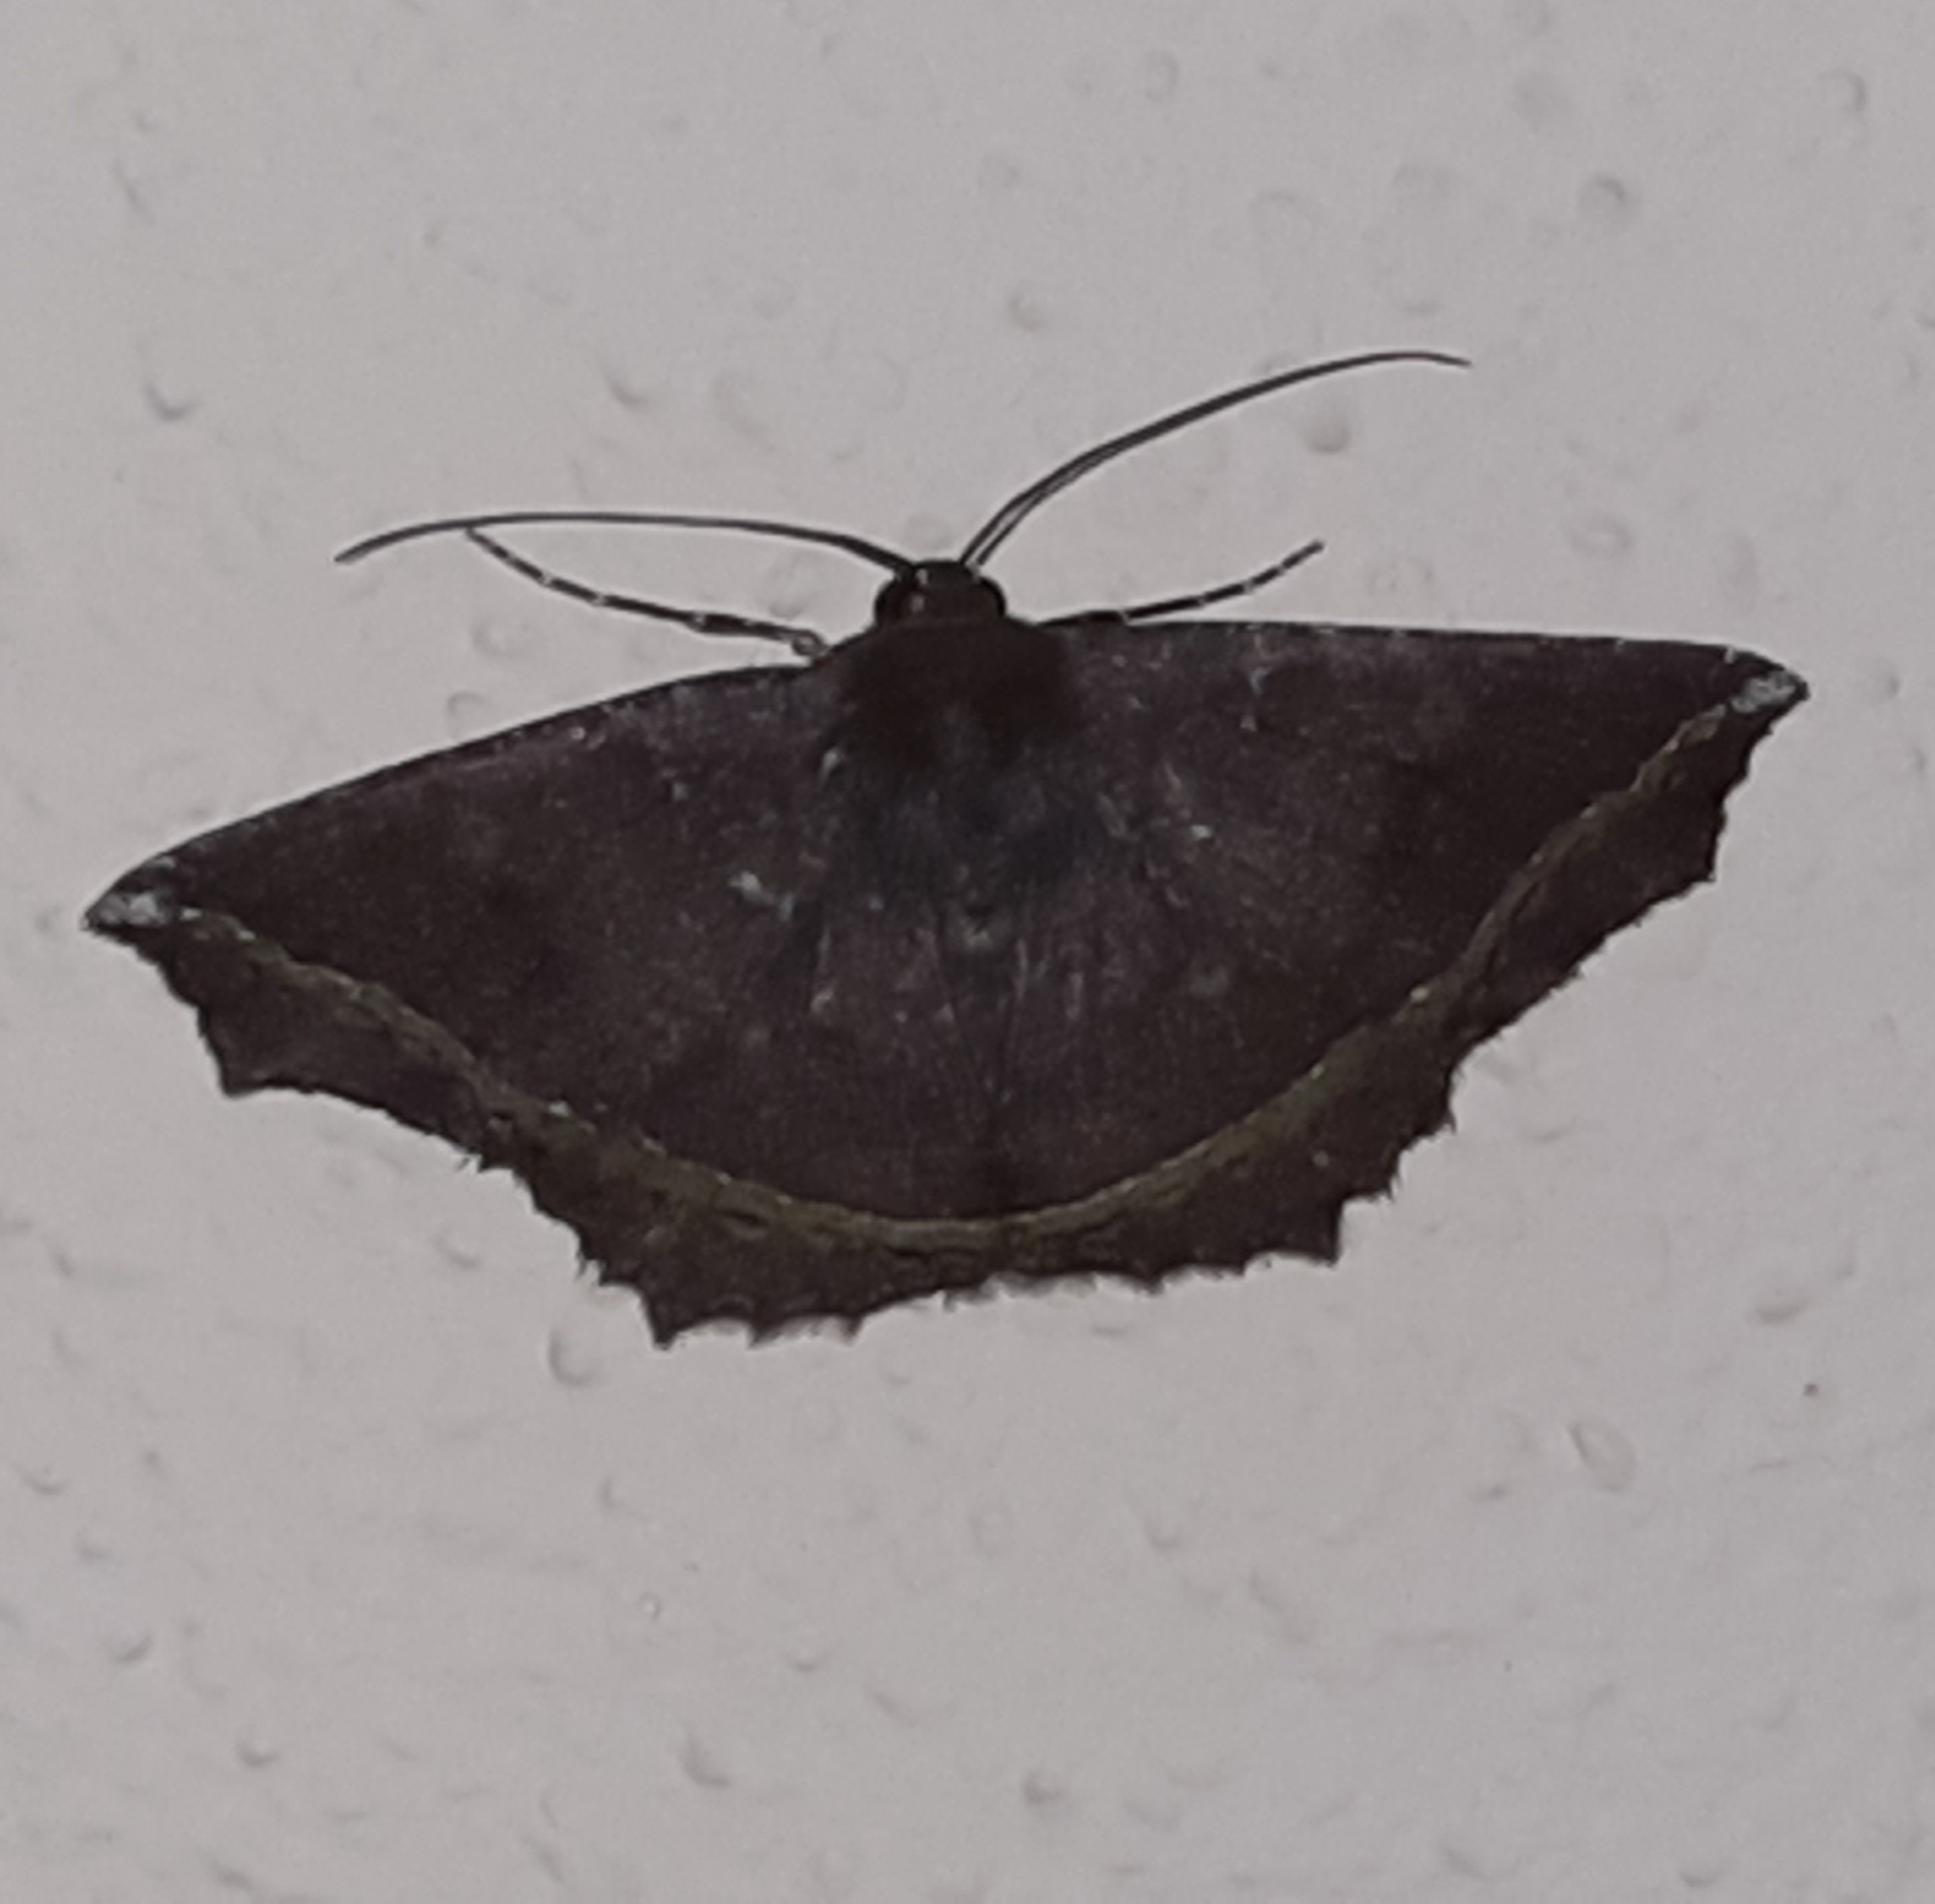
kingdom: Animalia
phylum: Arthropoda
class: Insecta
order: Lepidoptera
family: Geometridae
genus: Synnomos
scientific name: Synnomos firmamentaria
